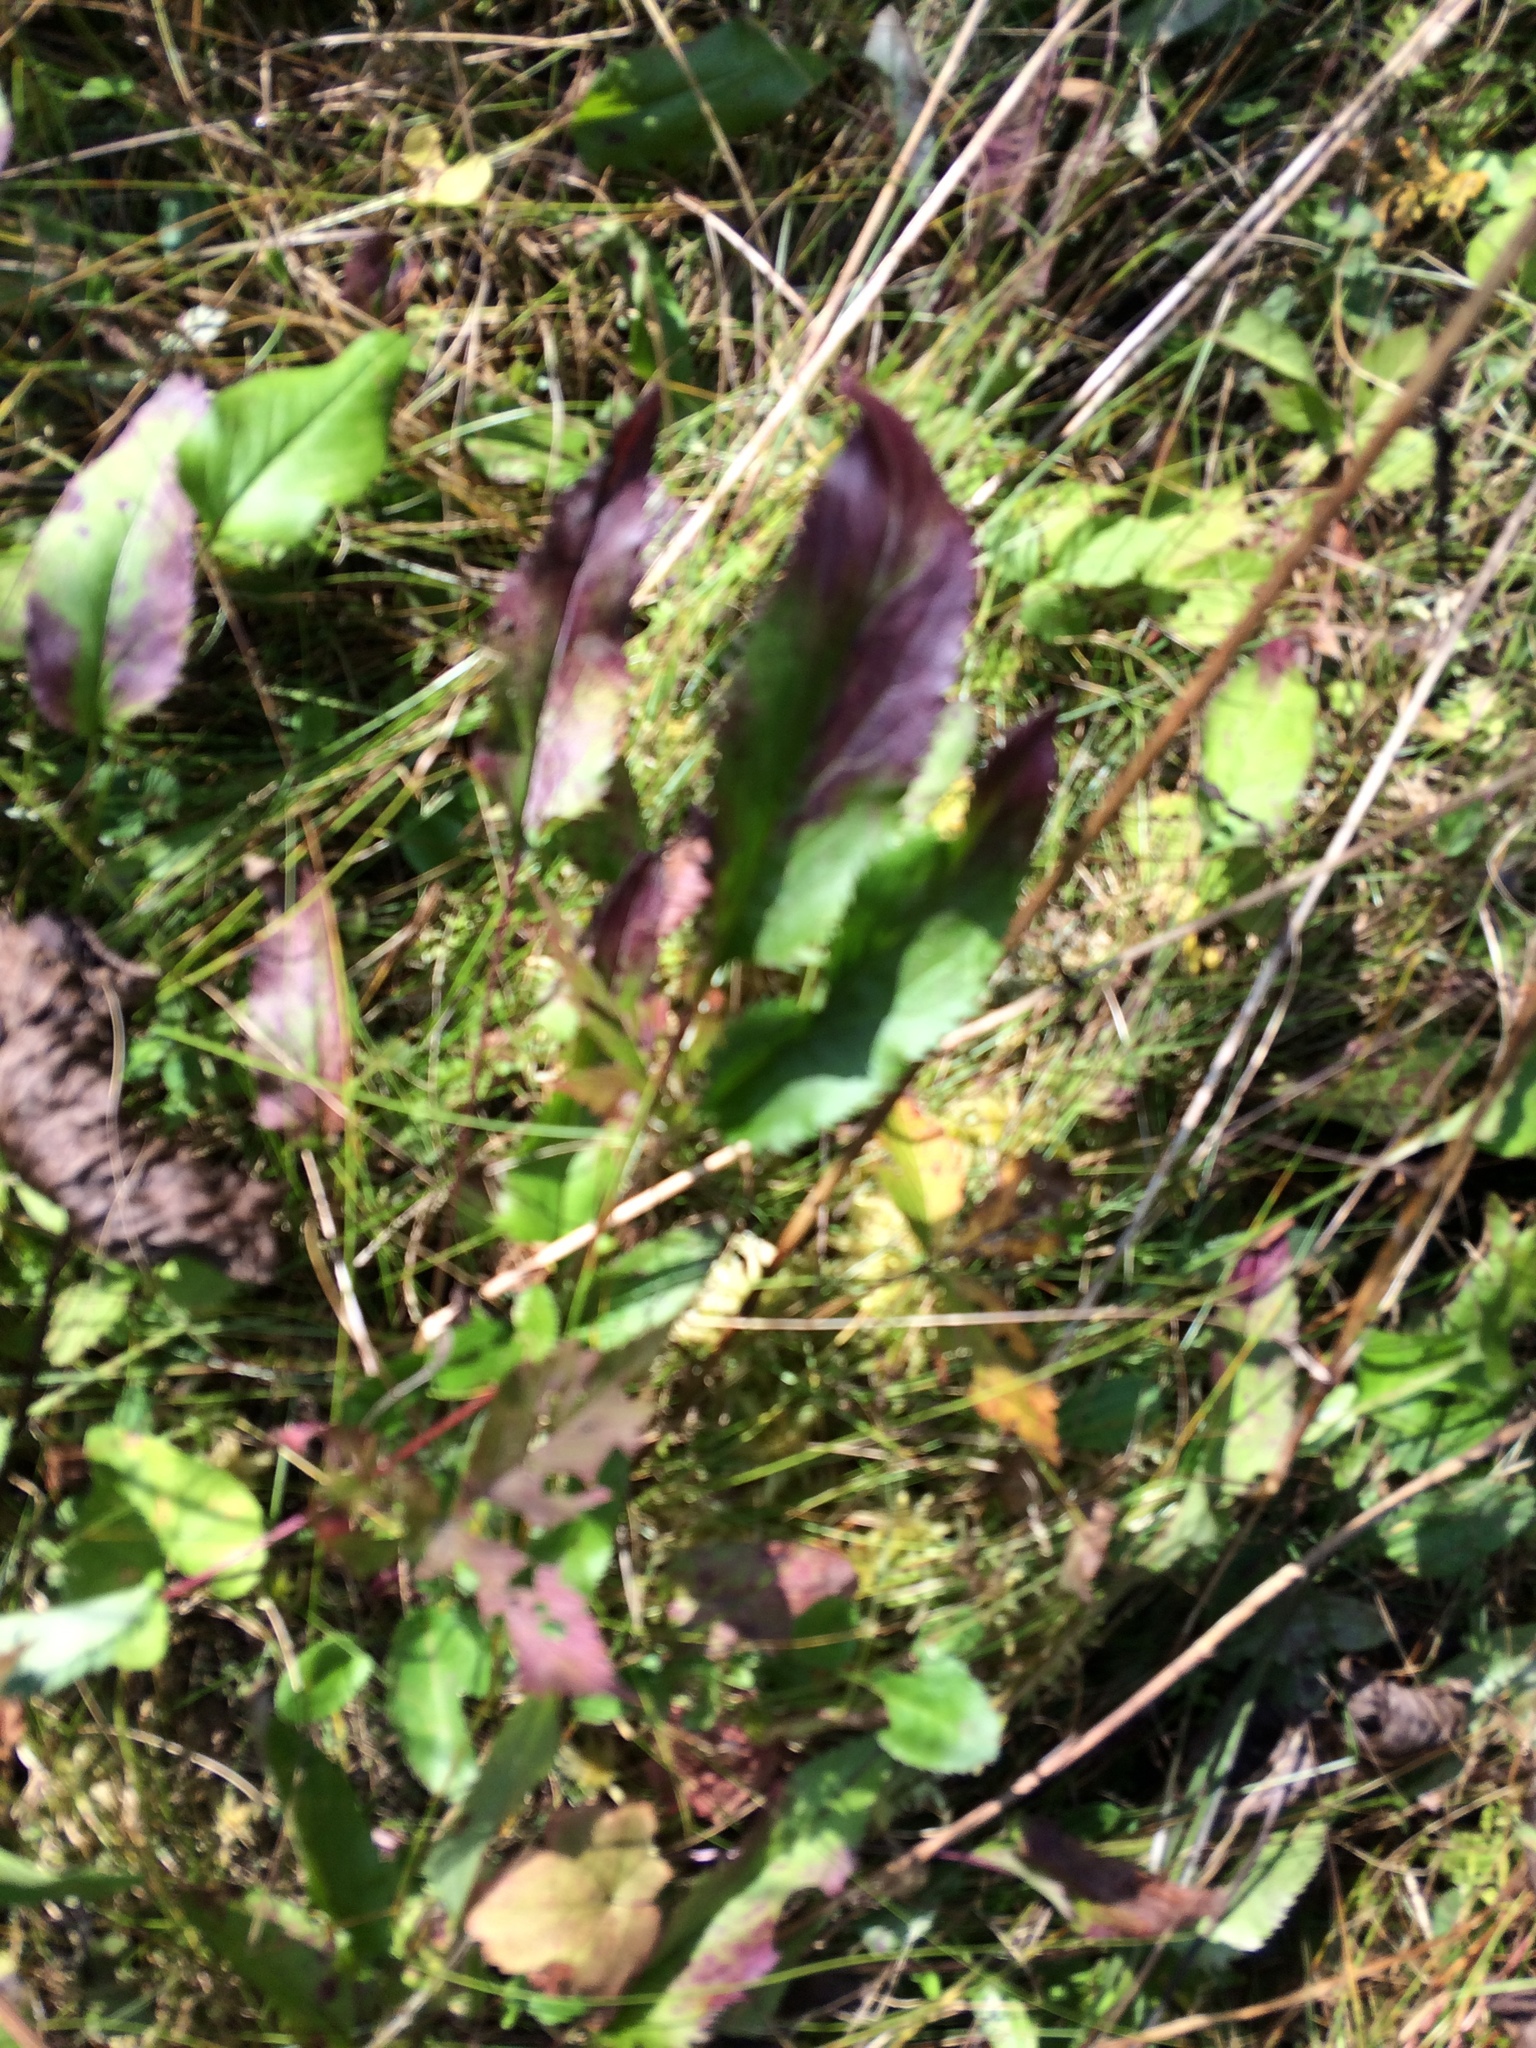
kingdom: Plantae
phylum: Tracheophyta
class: Magnoliopsida
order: Asterales
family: Asteraceae
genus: Packera
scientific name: Packera schweinitziana
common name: Schweinitz's ragwort
